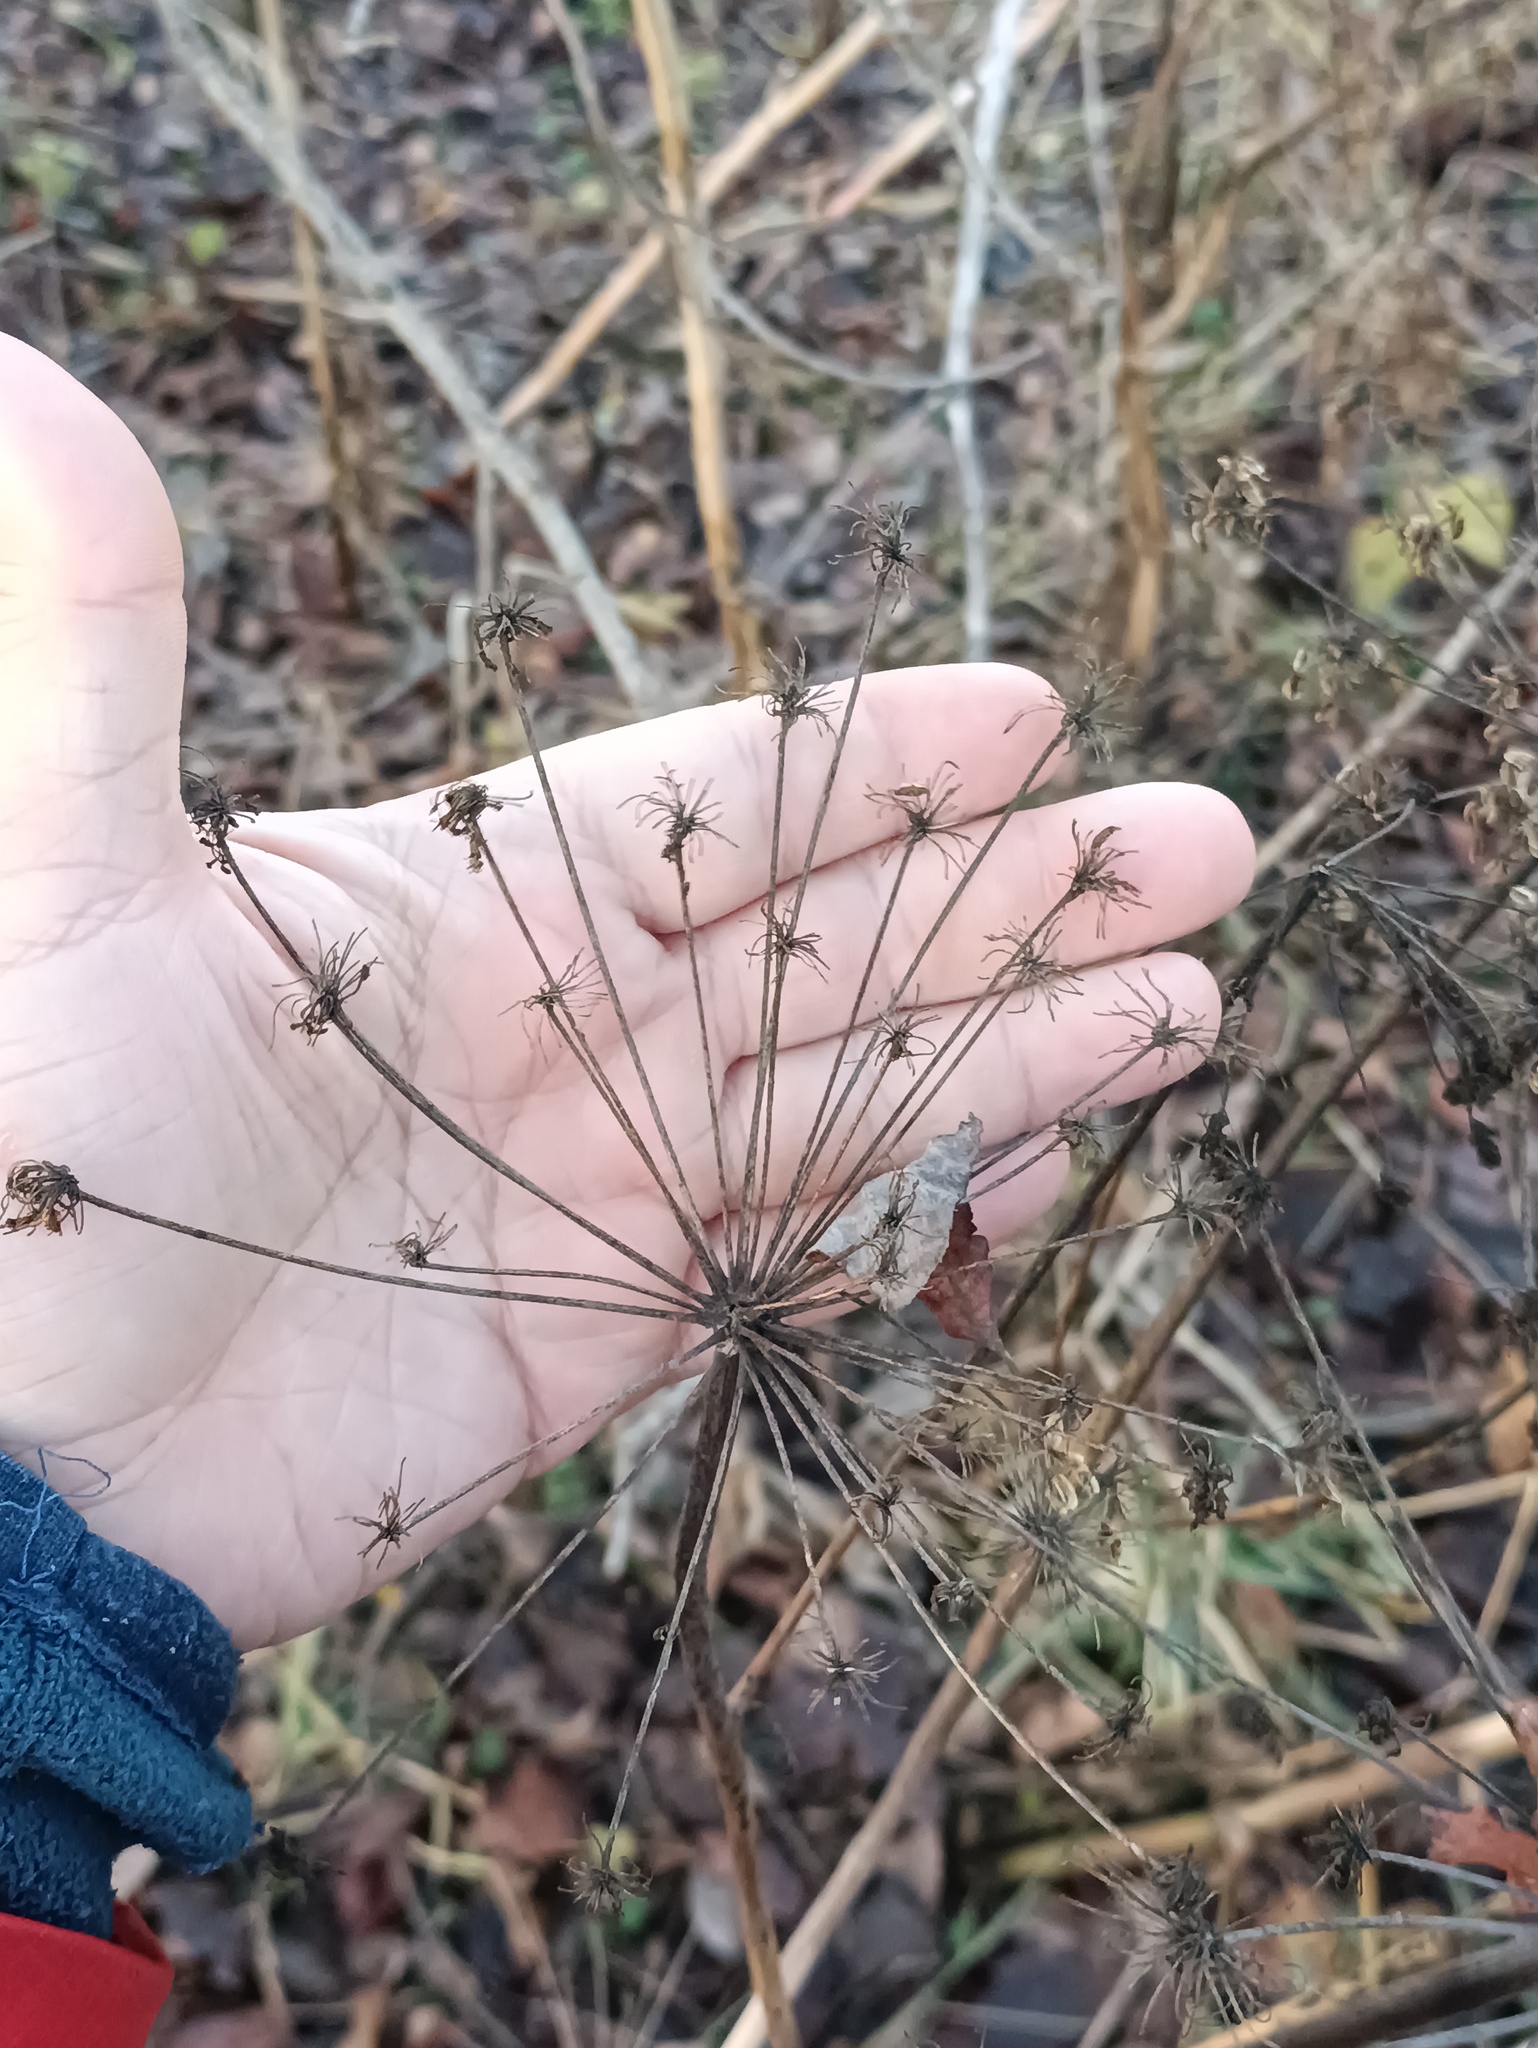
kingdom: Plantae
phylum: Tracheophyta
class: Magnoliopsida
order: Apiales
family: Apiaceae
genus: Angelica
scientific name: Angelica sylvestris
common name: Wild angelica
